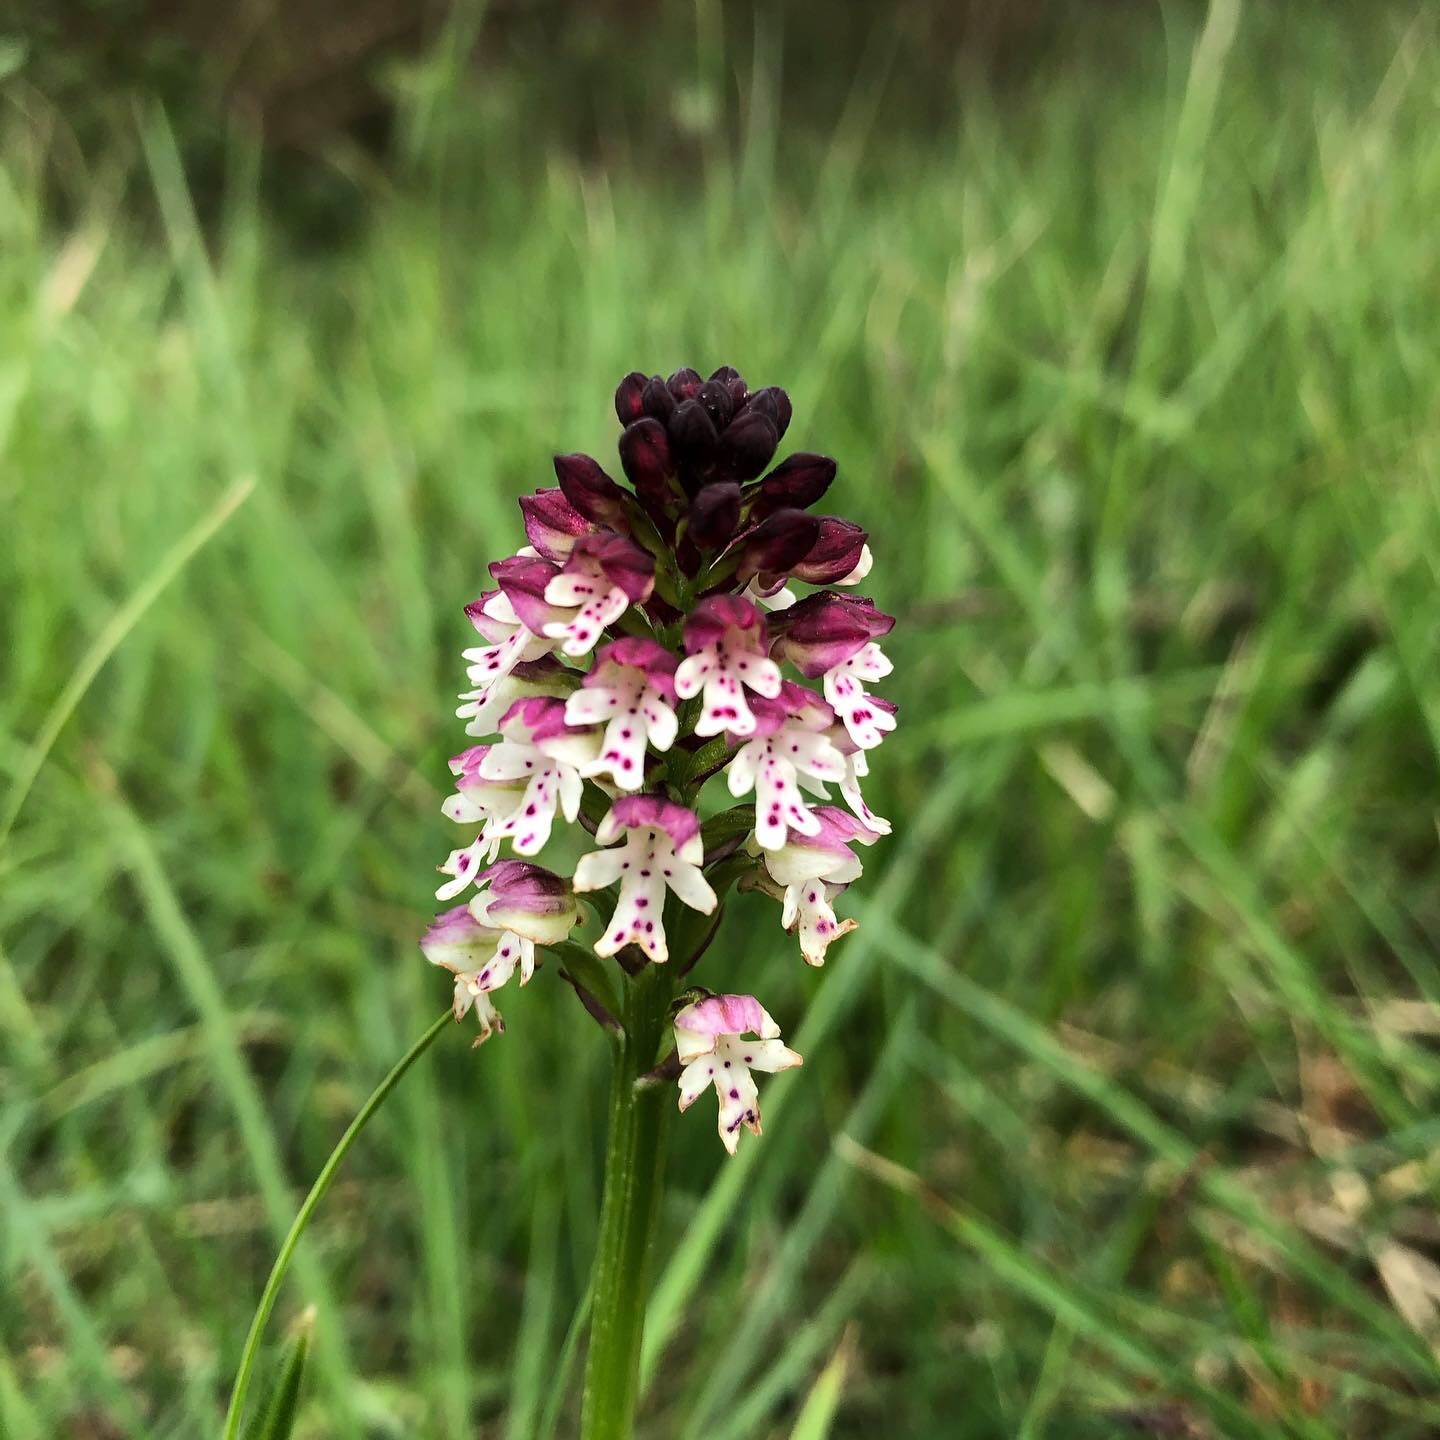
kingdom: Plantae
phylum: Tracheophyta
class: Liliopsida
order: Asparagales
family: Orchidaceae
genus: Neotinea
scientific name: Neotinea ustulata
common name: Burnt orchid
